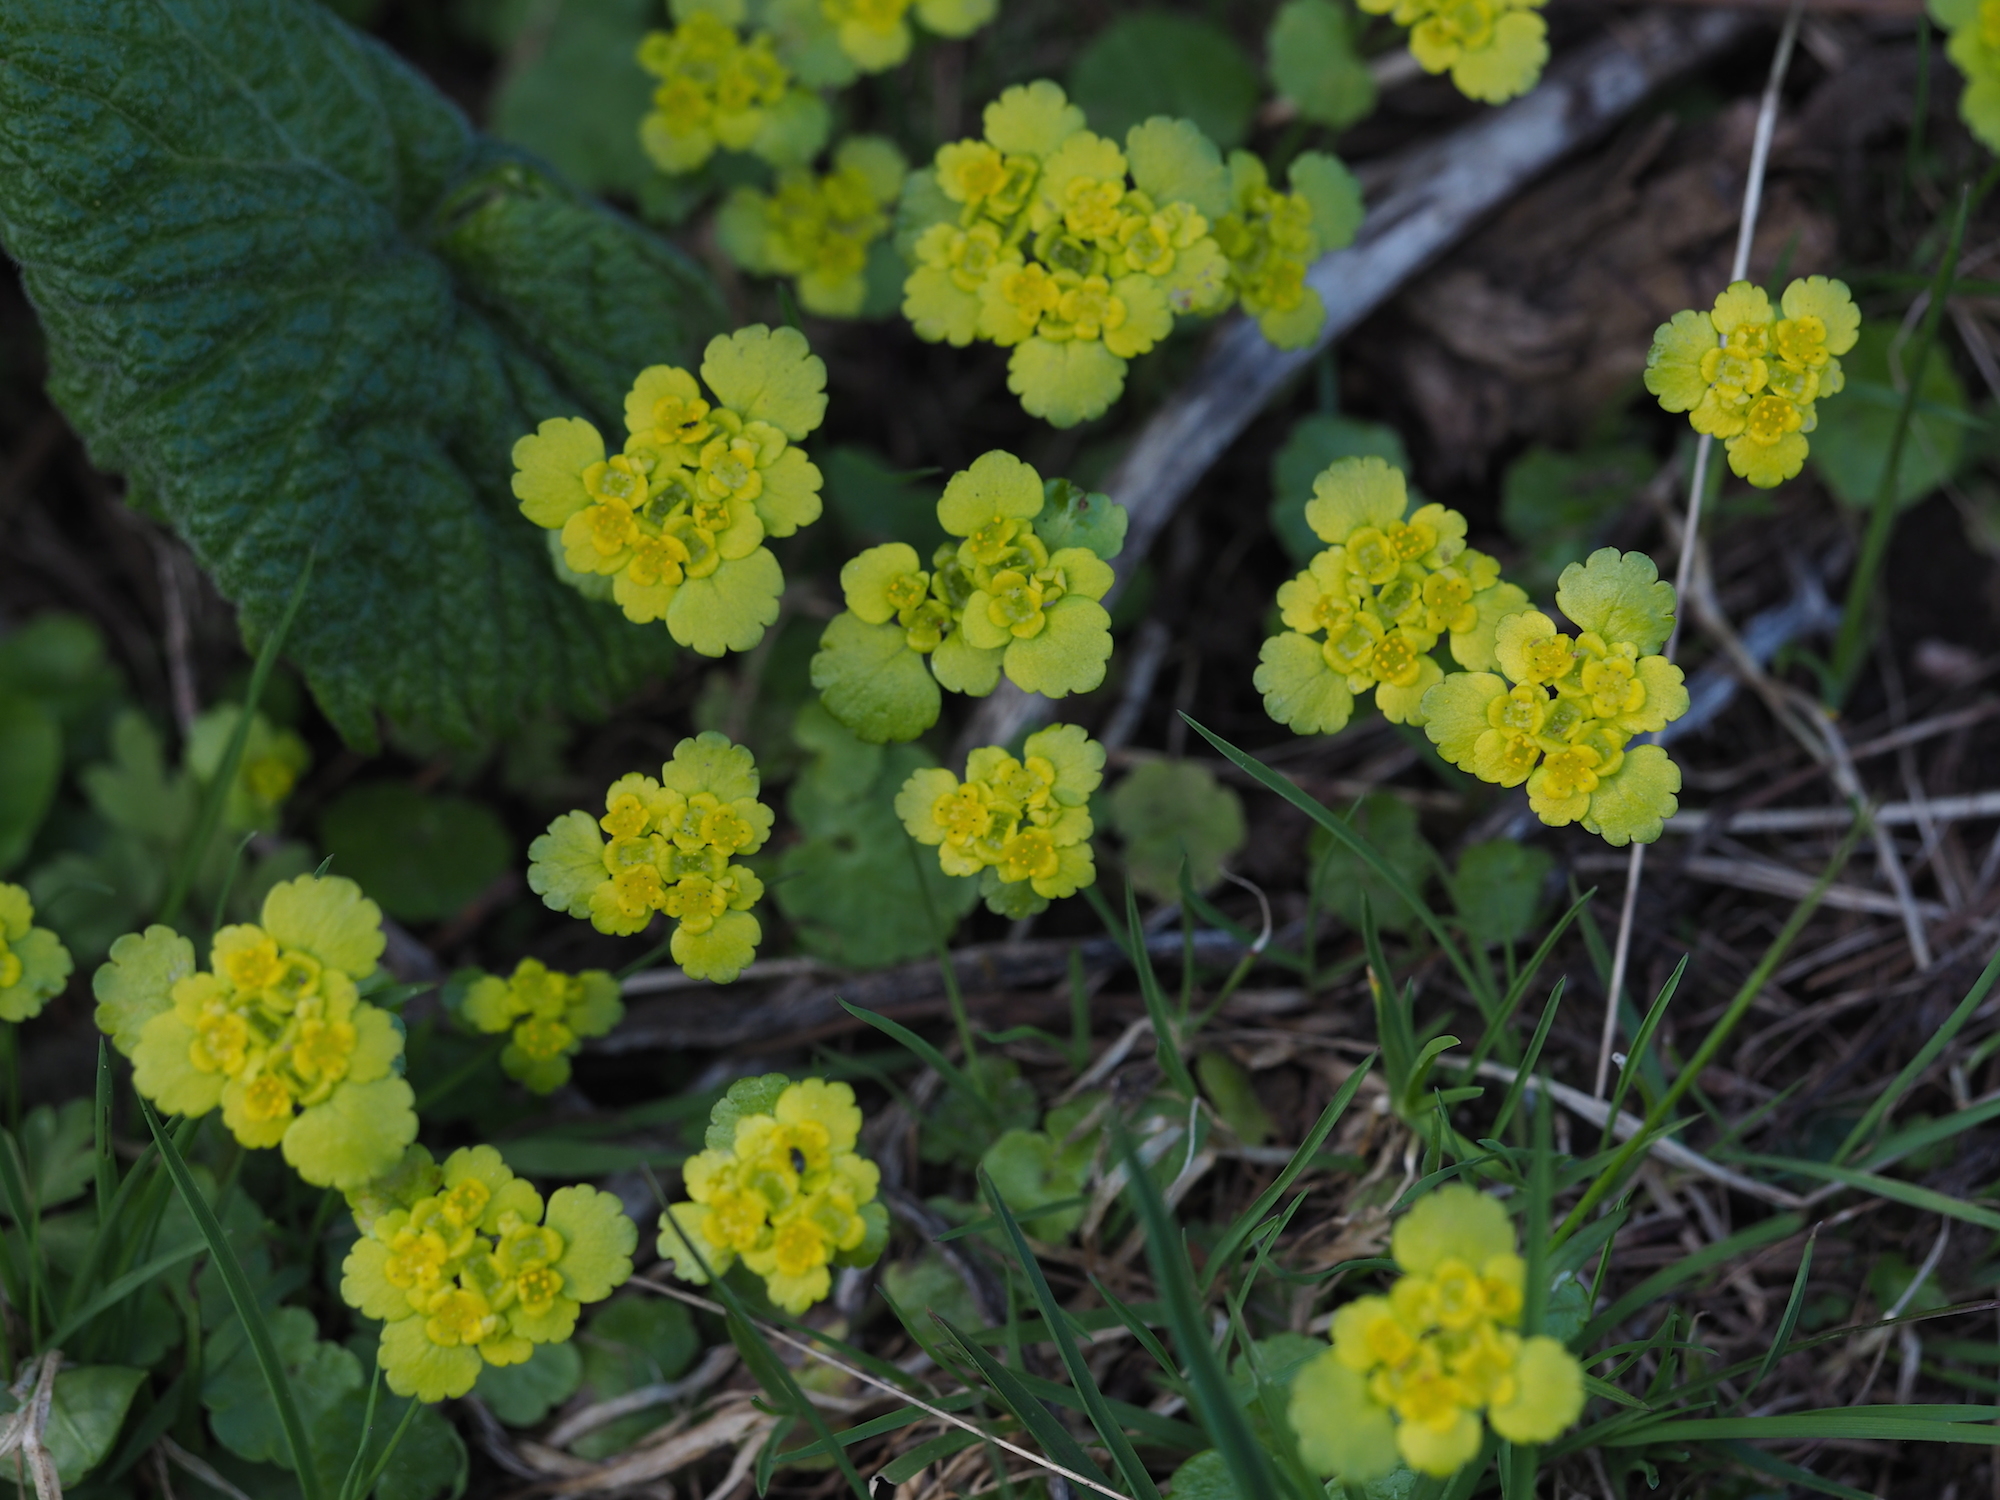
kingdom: Plantae
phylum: Tracheophyta
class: Magnoliopsida
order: Saxifragales
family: Saxifragaceae
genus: Chrysosplenium
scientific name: Chrysosplenium alternifolium
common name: Alternate-leaved golden-saxifrage
